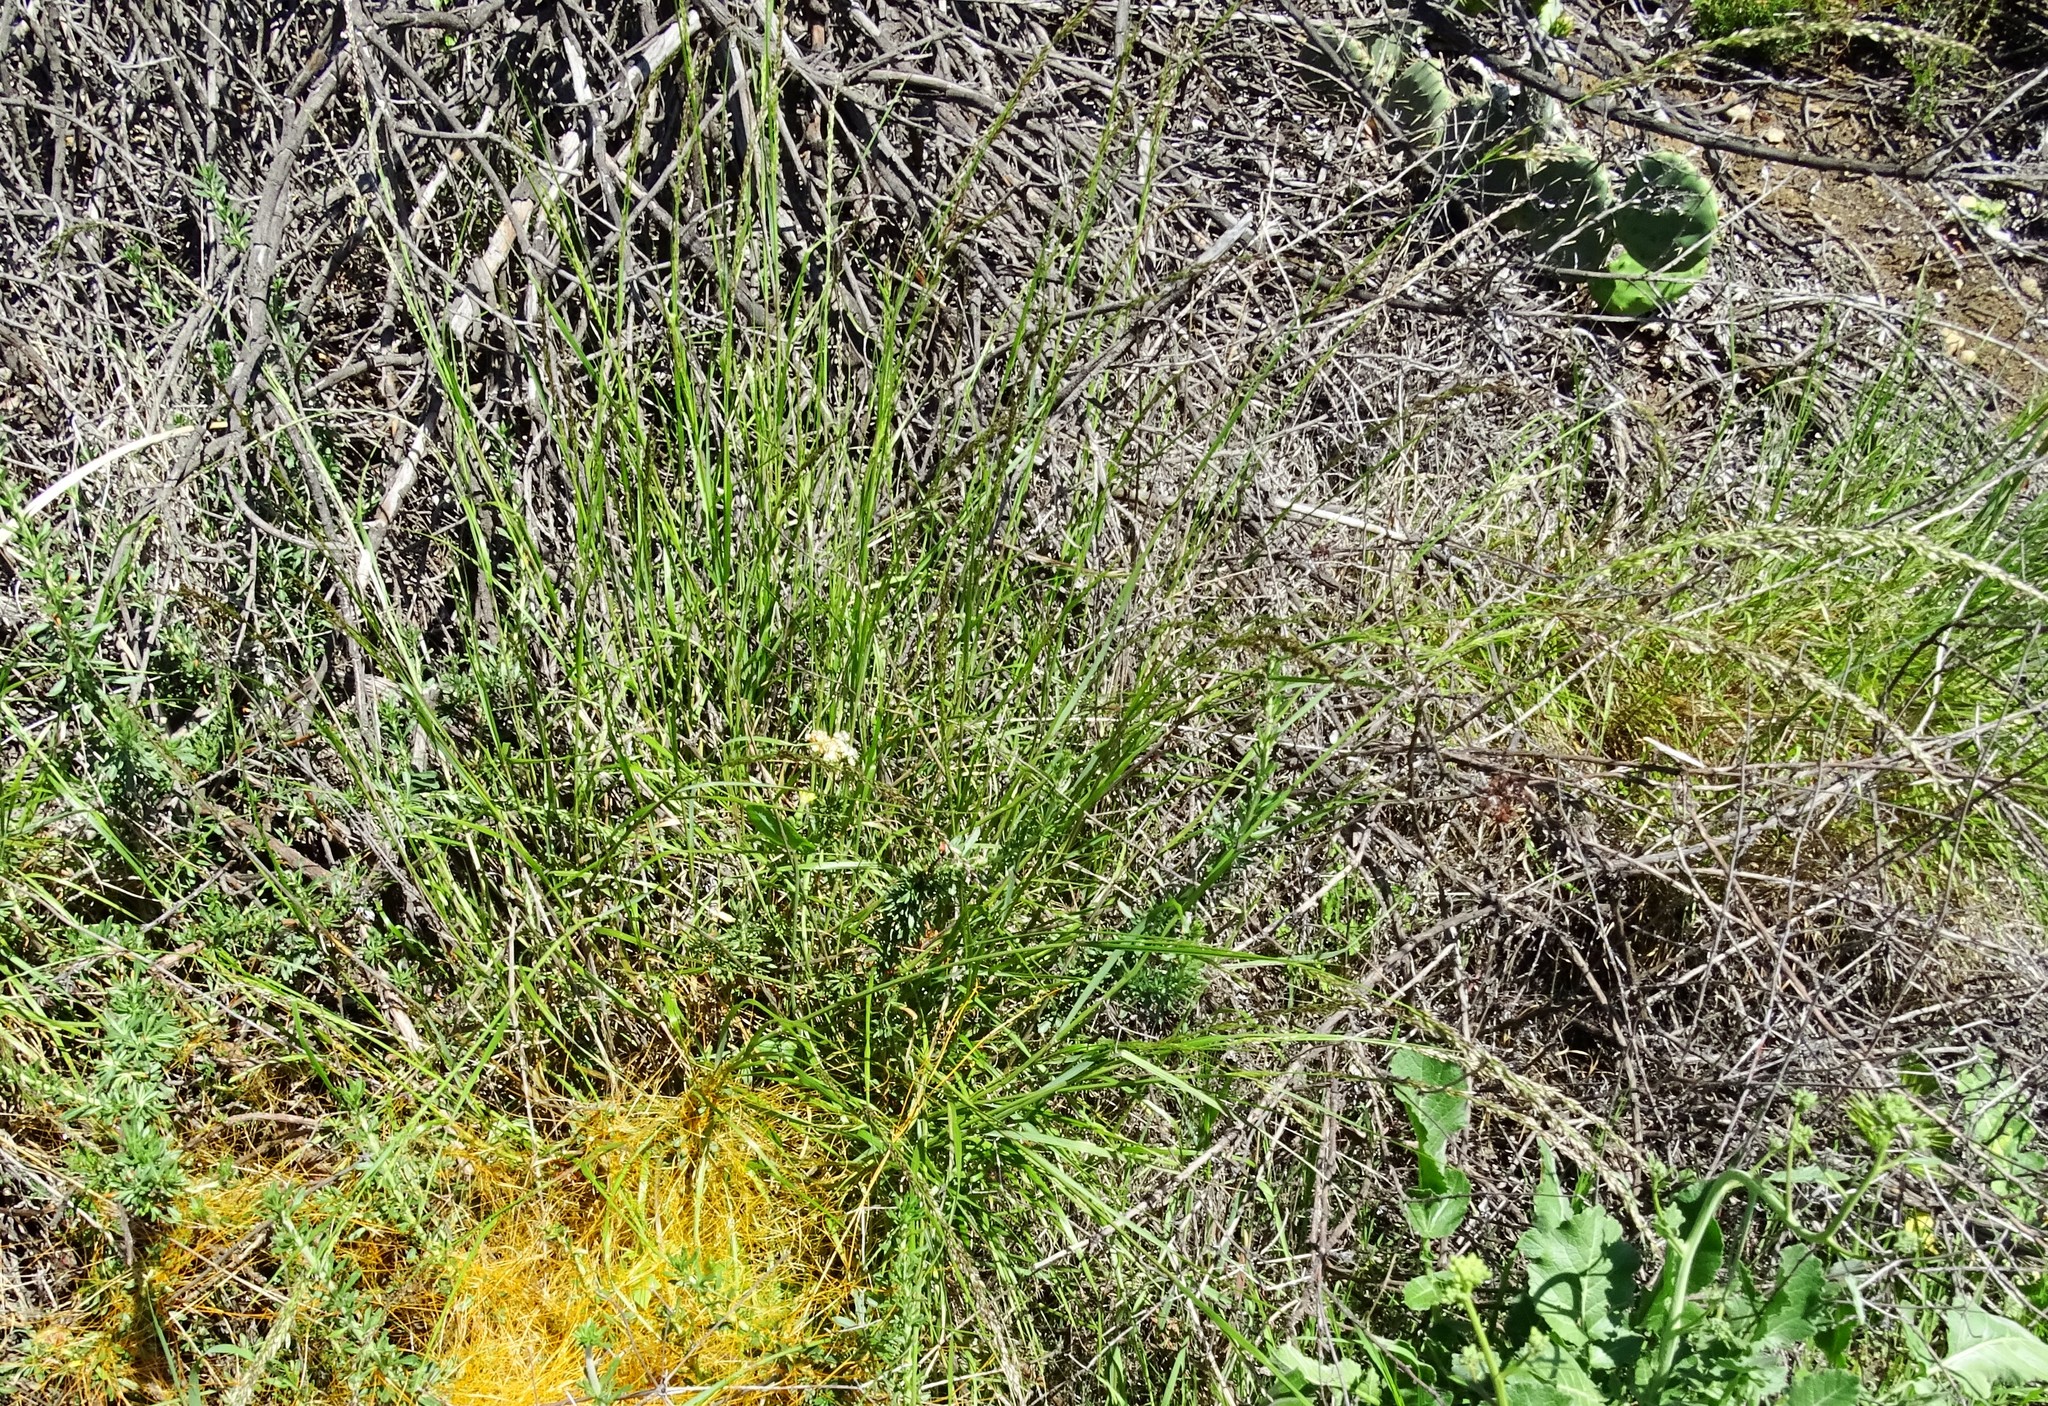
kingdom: Plantae
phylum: Tracheophyta
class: Liliopsida
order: Poales
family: Poaceae
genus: Melica
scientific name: Melica imperfecta
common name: California melic
